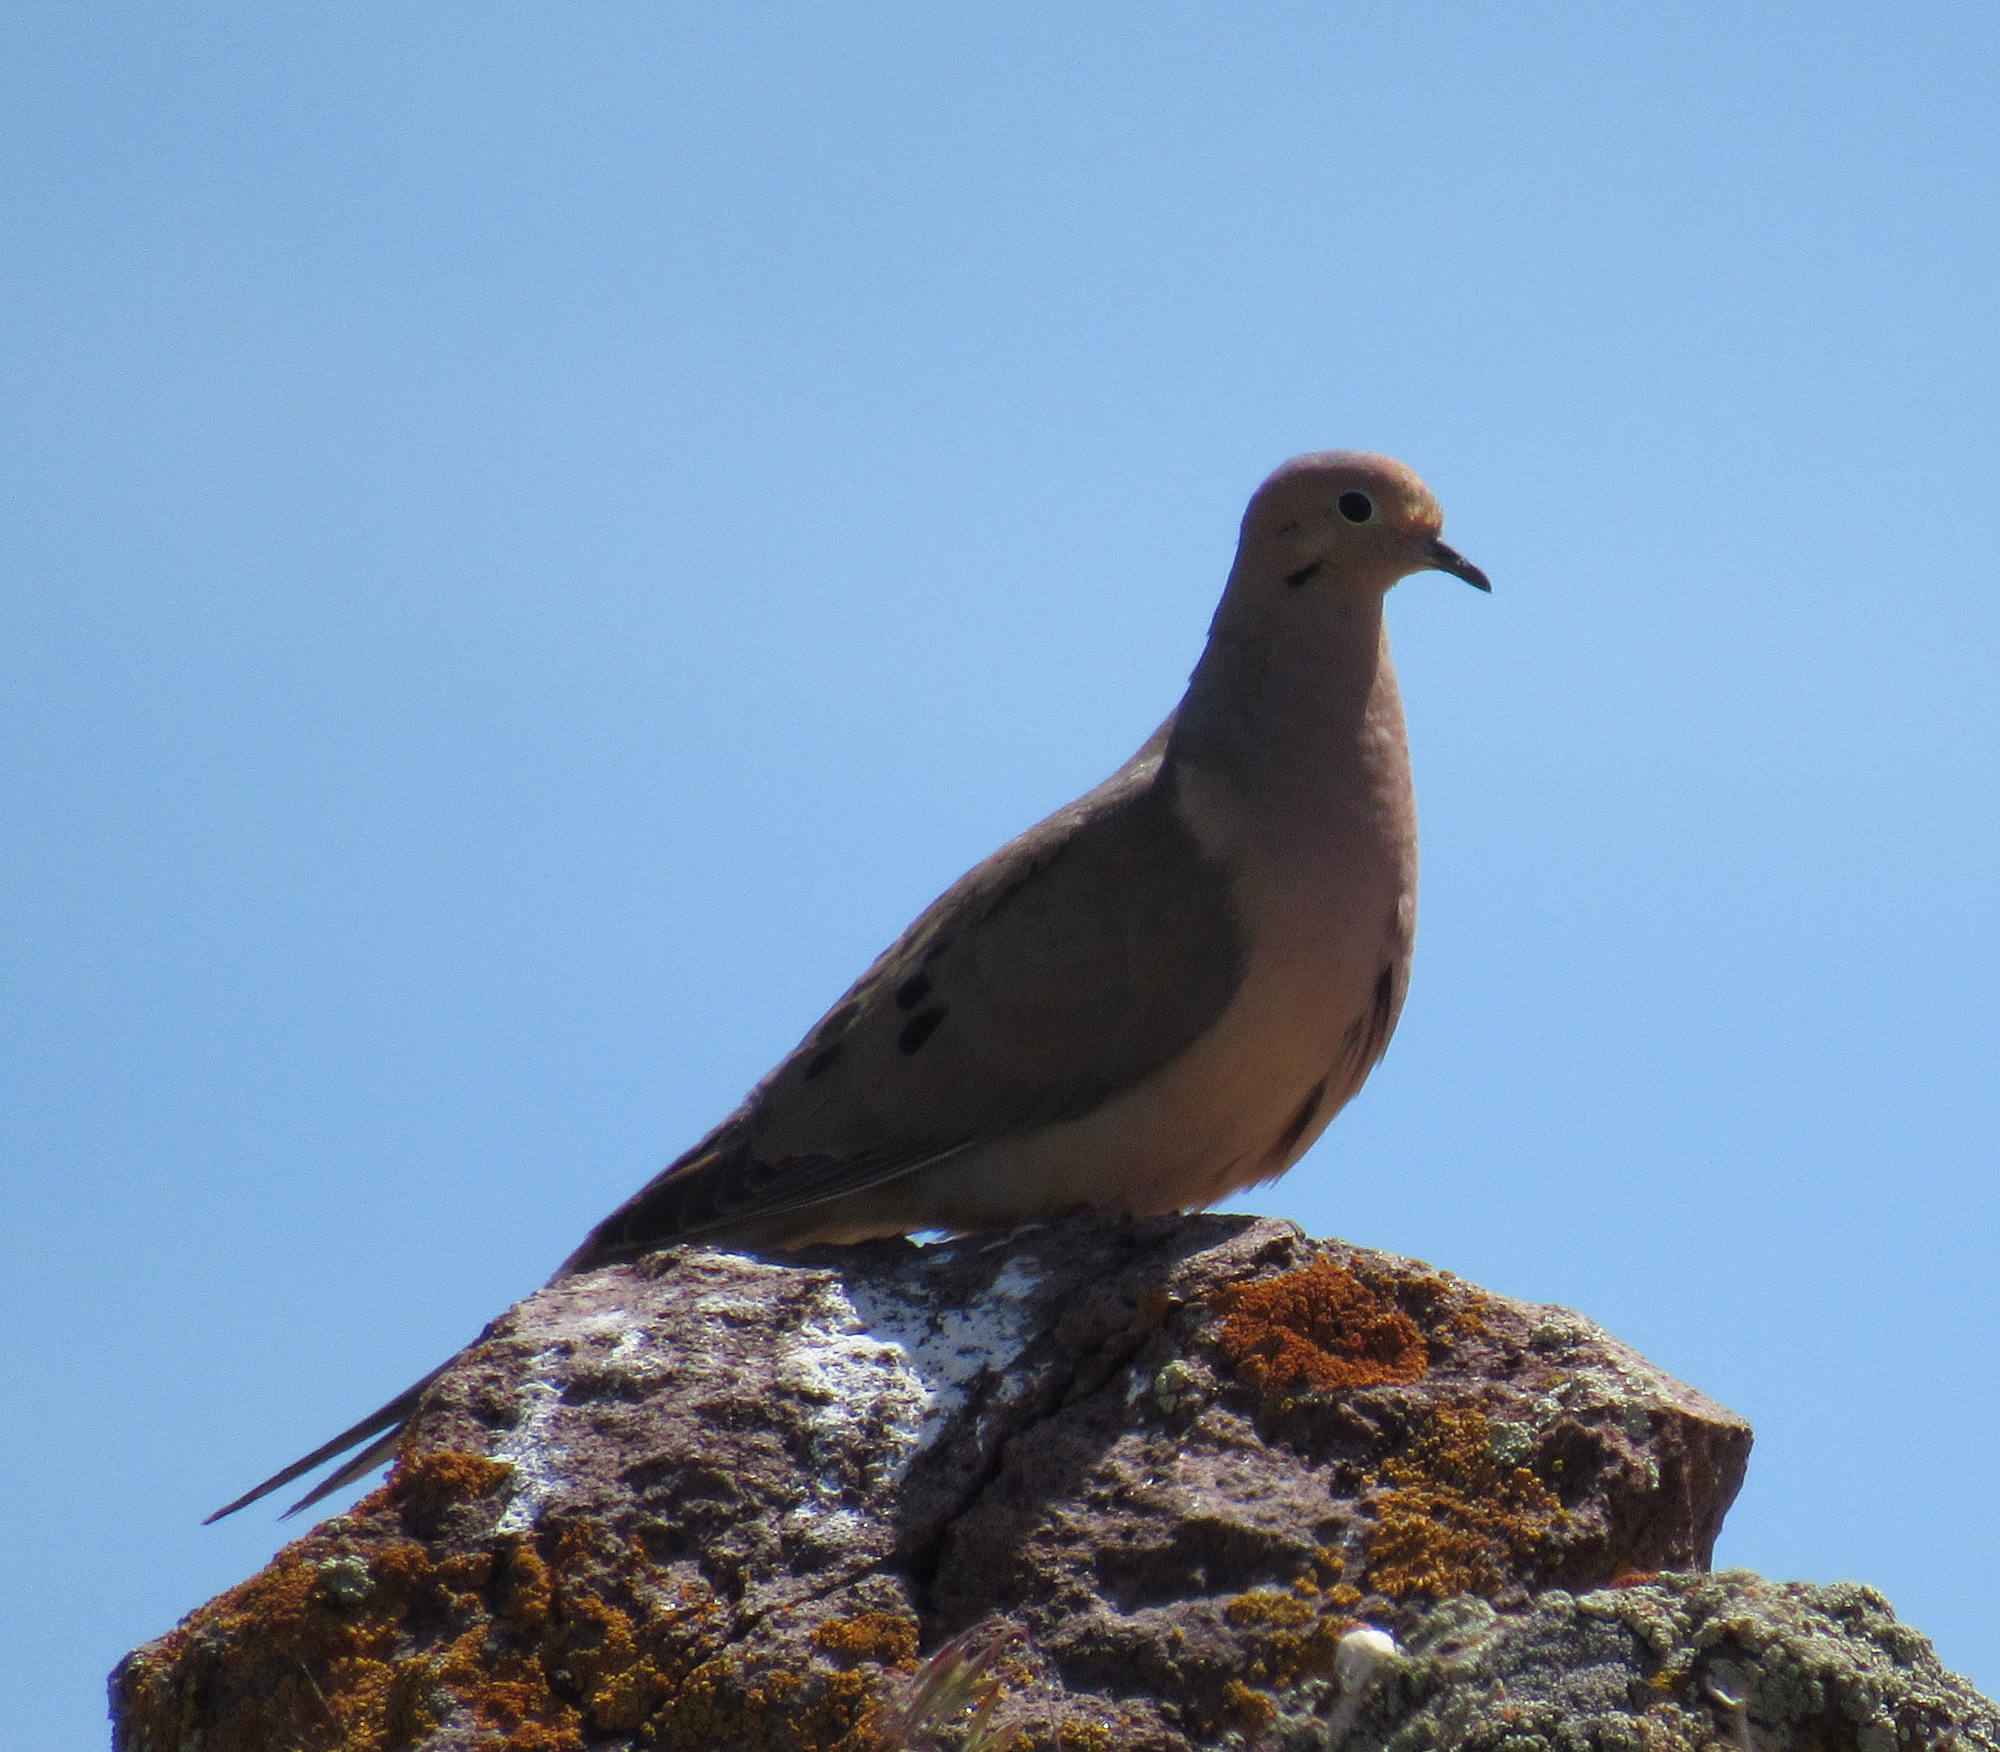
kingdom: Animalia
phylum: Chordata
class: Aves
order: Columbiformes
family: Columbidae
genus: Zenaida
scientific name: Zenaida macroura
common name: Mourning dove
